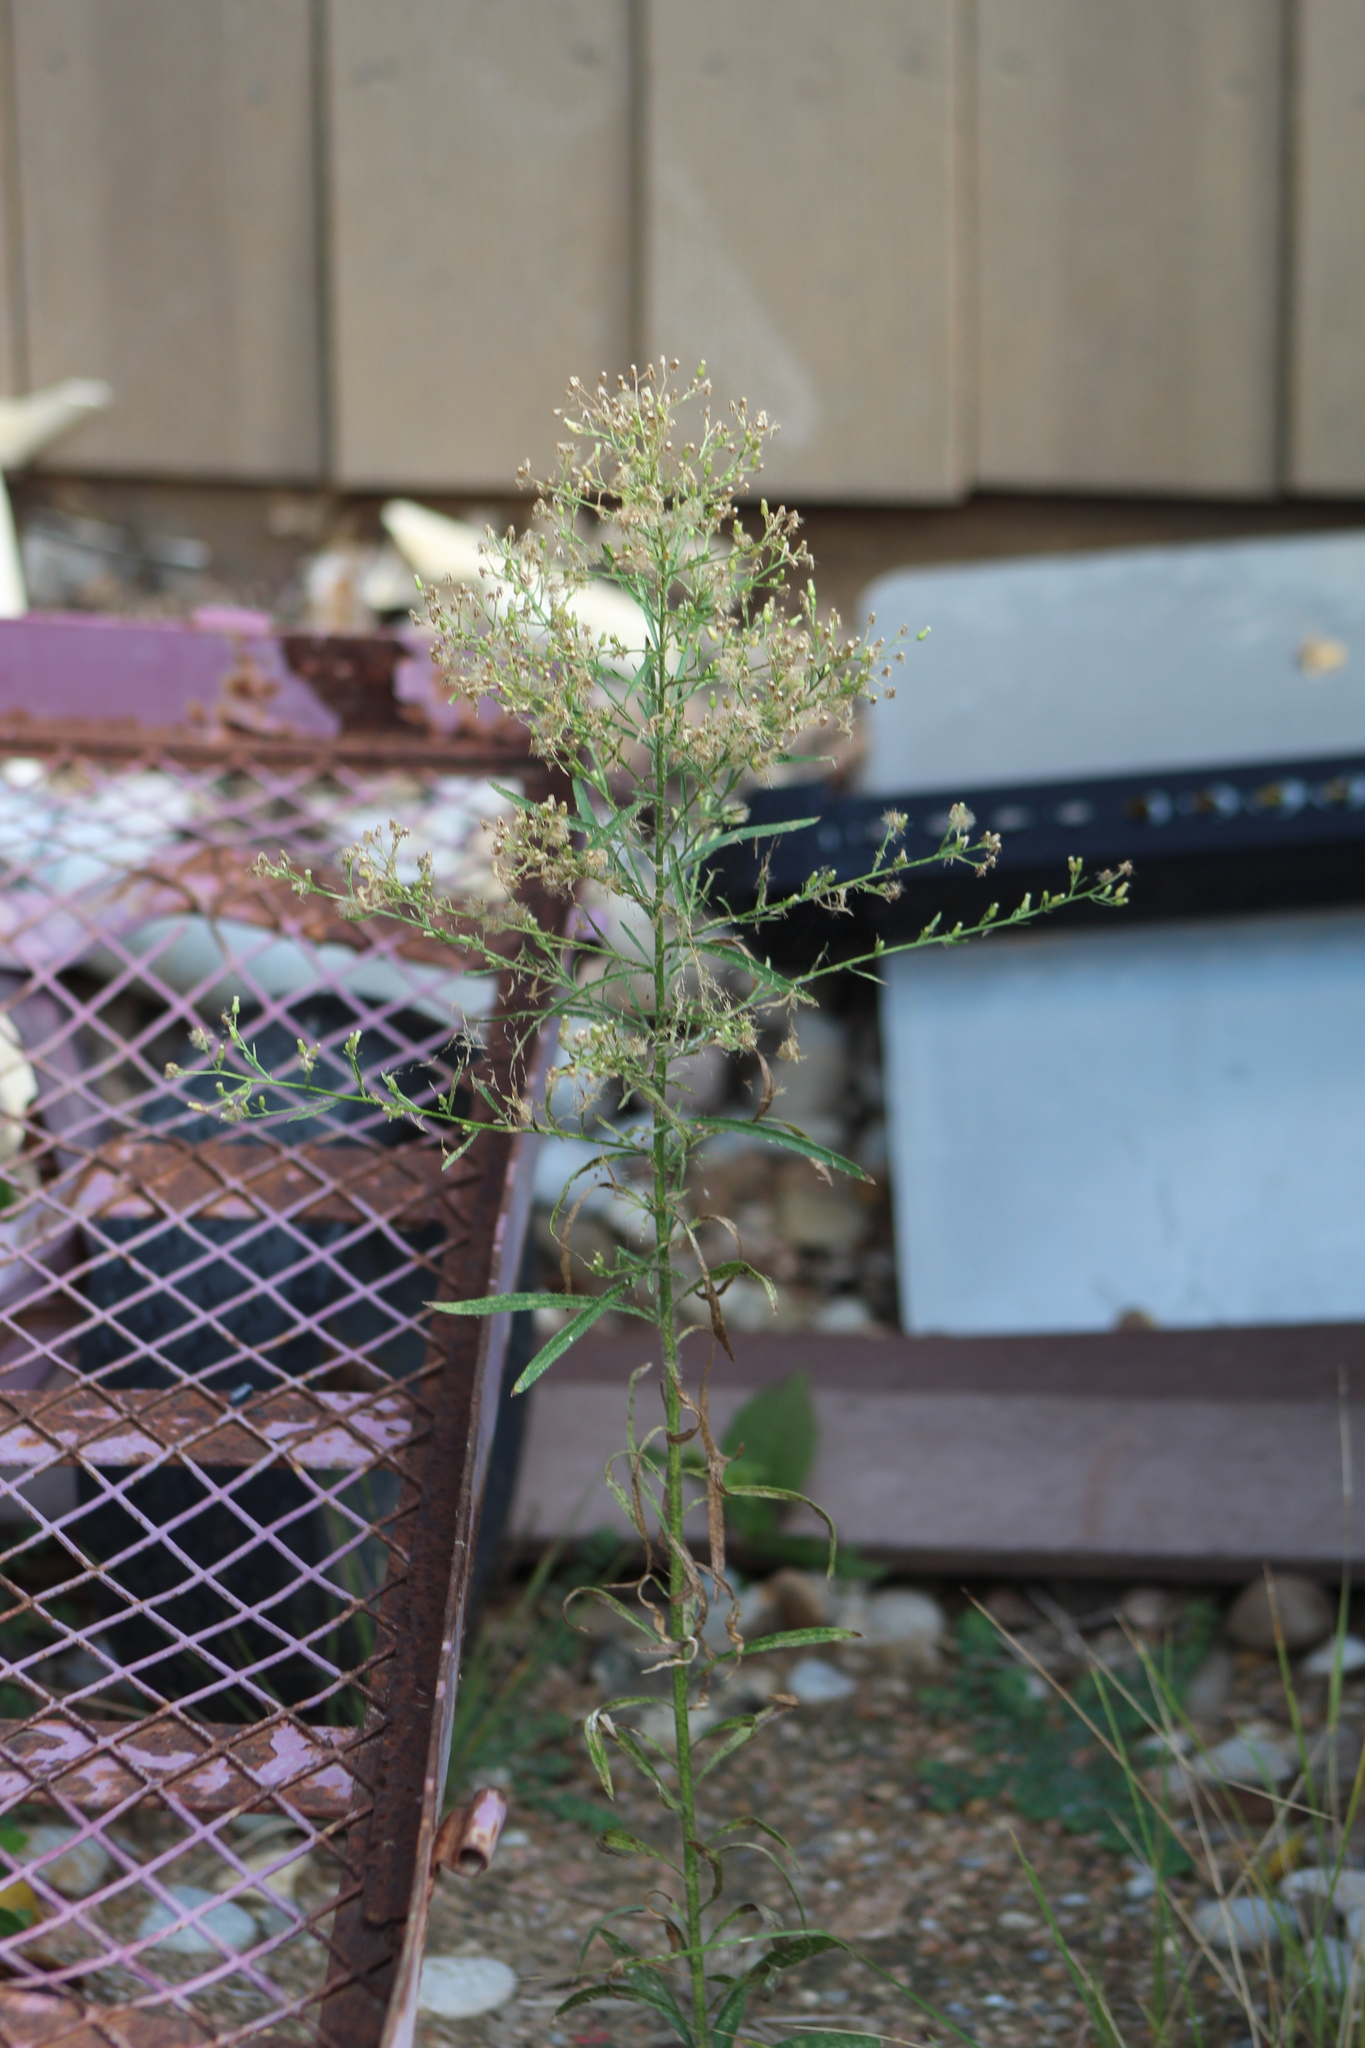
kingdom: Plantae
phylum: Tracheophyta
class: Magnoliopsida
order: Asterales
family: Asteraceae
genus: Erigeron
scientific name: Erigeron canadensis
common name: Canadian fleabane
